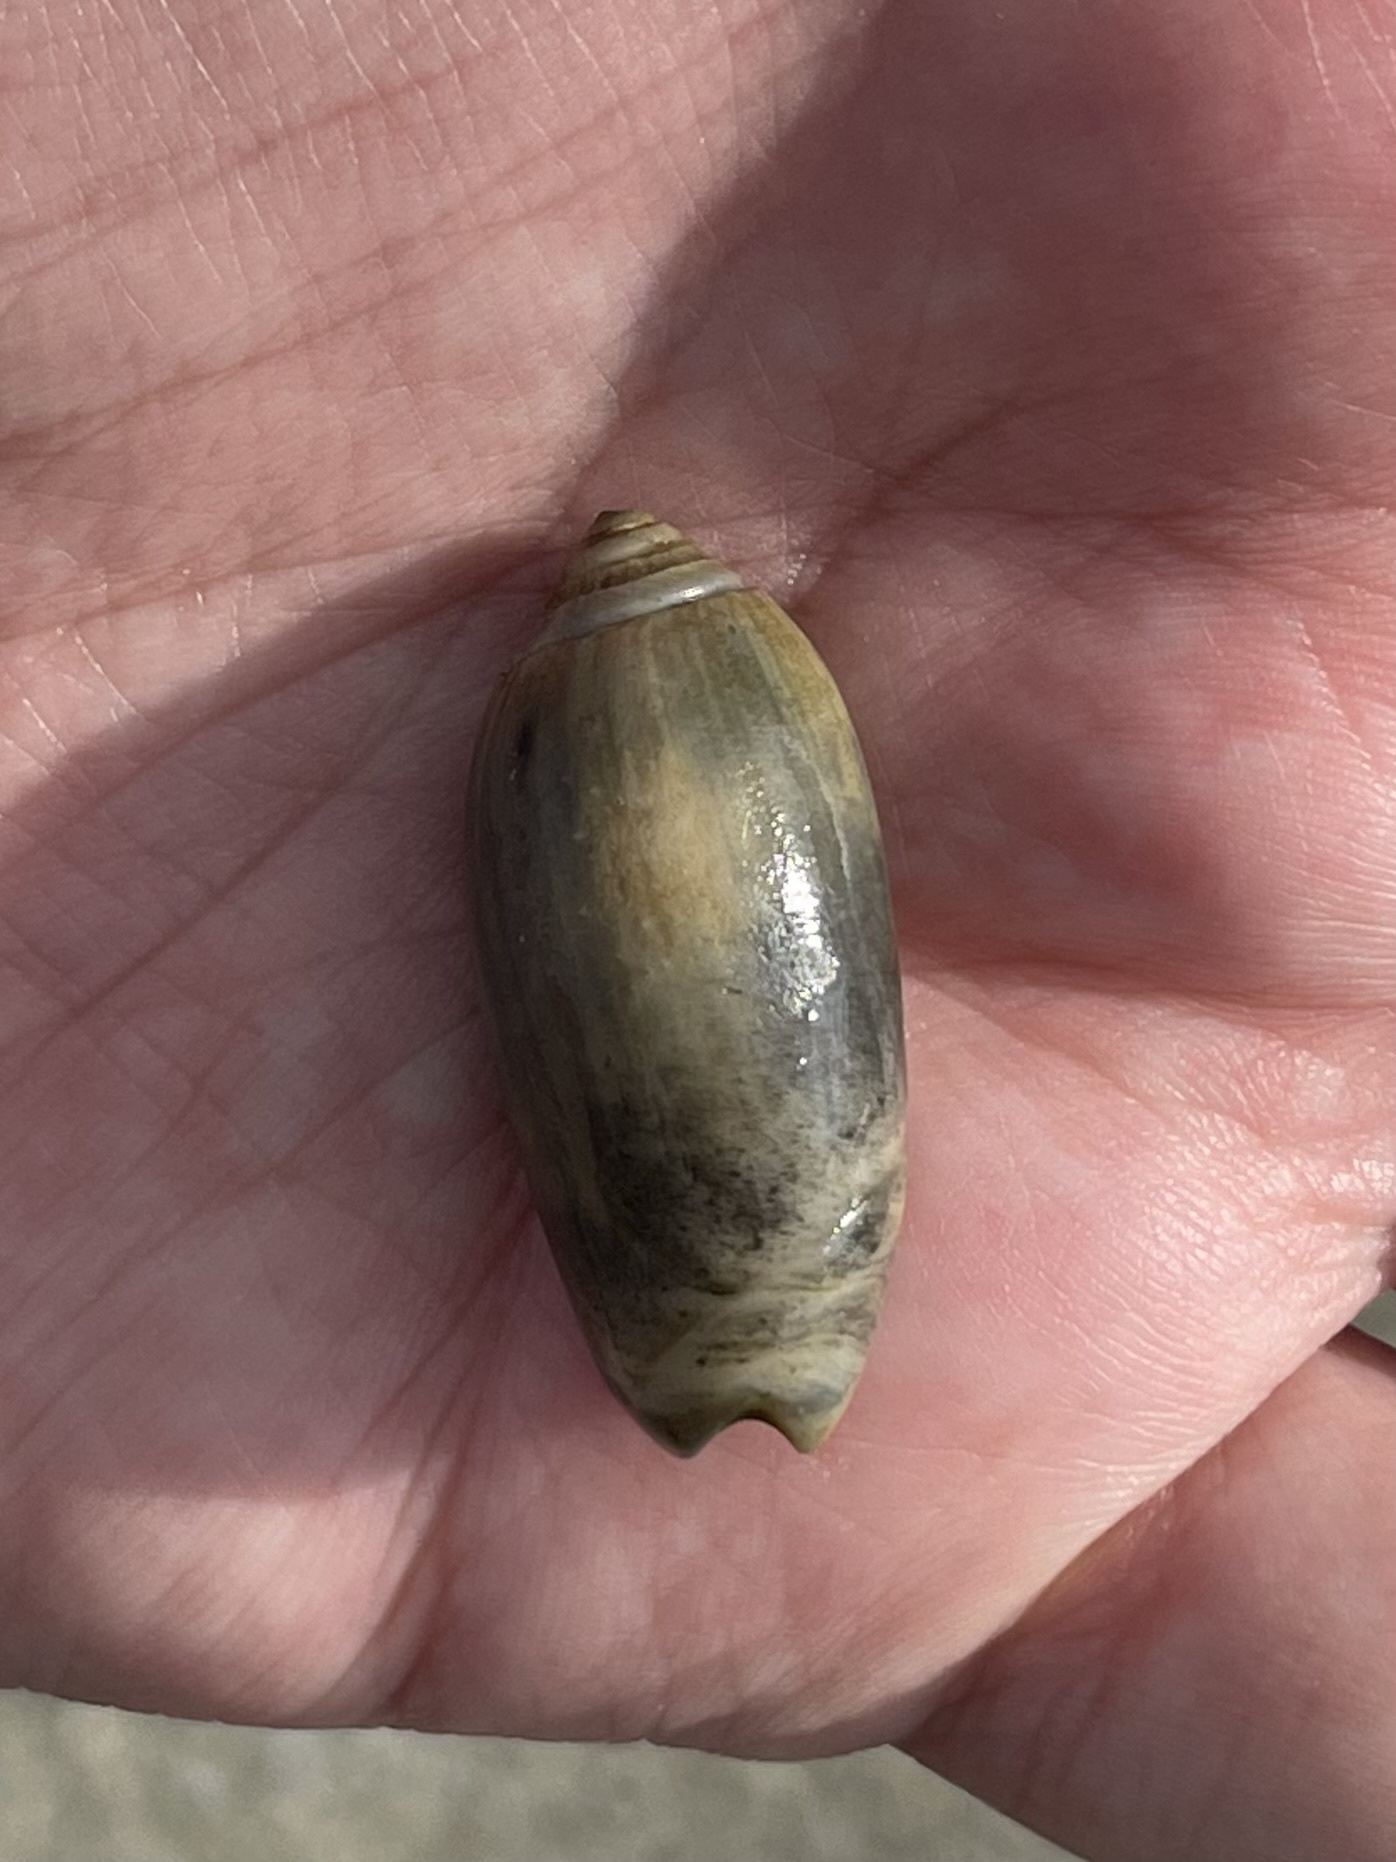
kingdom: Animalia
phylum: Mollusca
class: Gastropoda
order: Neogastropoda
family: Olividae
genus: Oliva
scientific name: Oliva sayana
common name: Lettered olive
